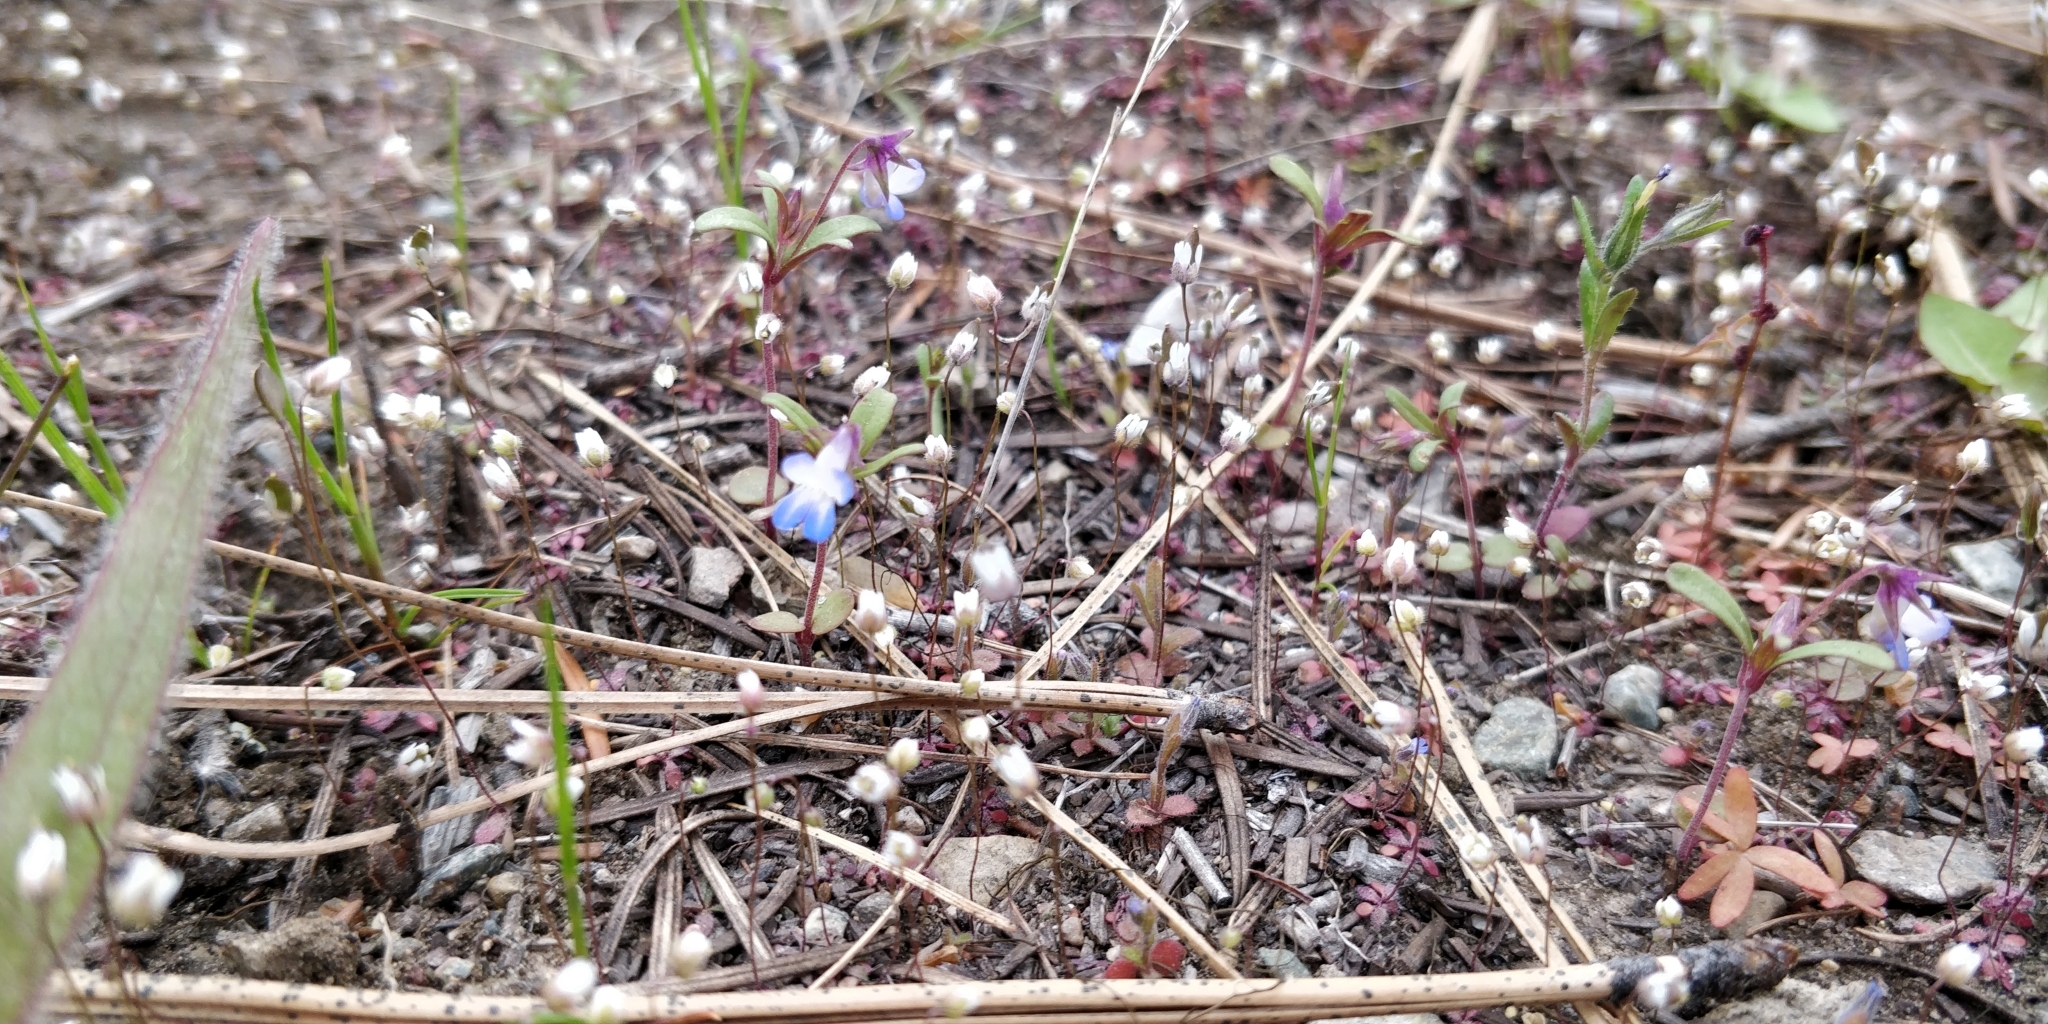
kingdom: Plantae
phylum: Tracheophyta
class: Magnoliopsida
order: Lamiales
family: Plantaginaceae
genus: Collinsia
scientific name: Collinsia parviflora
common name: Blue-lips
